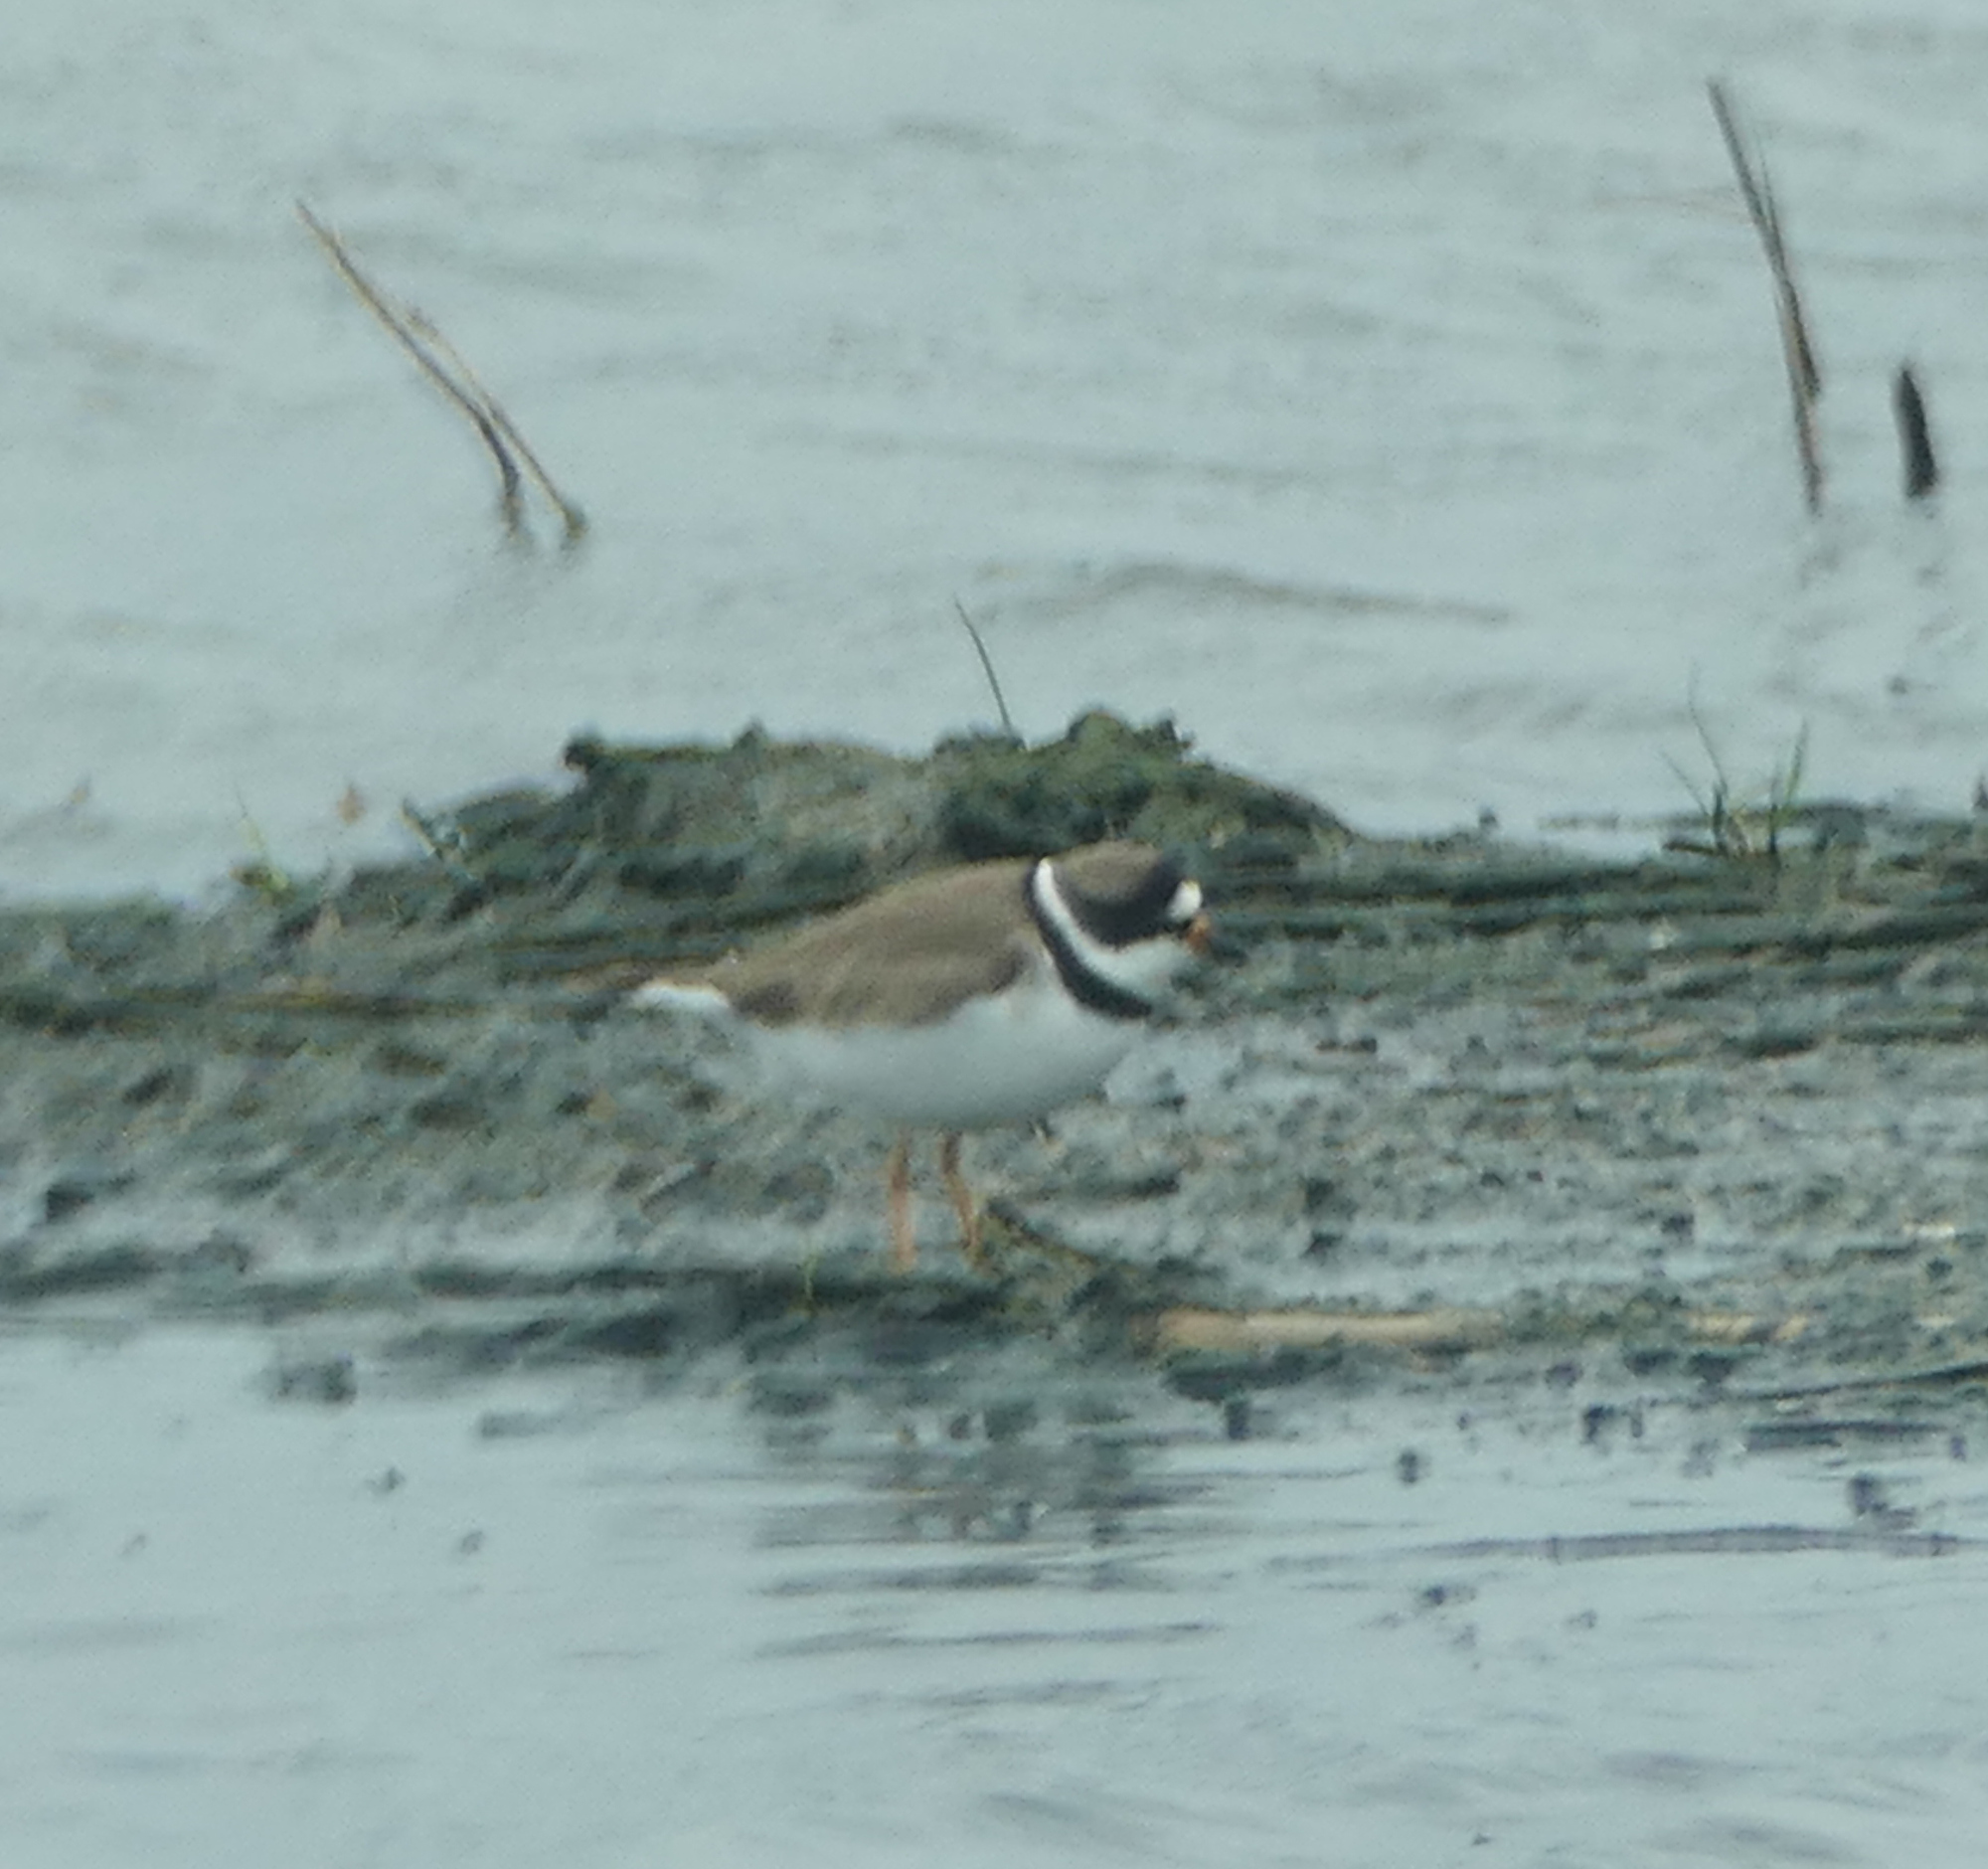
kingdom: Animalia
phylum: Chordata
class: Aves
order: Charadriiformes
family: Charadriidae
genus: Charadrius
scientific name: Charadrius semipalmatus
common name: Semipalmated plover
